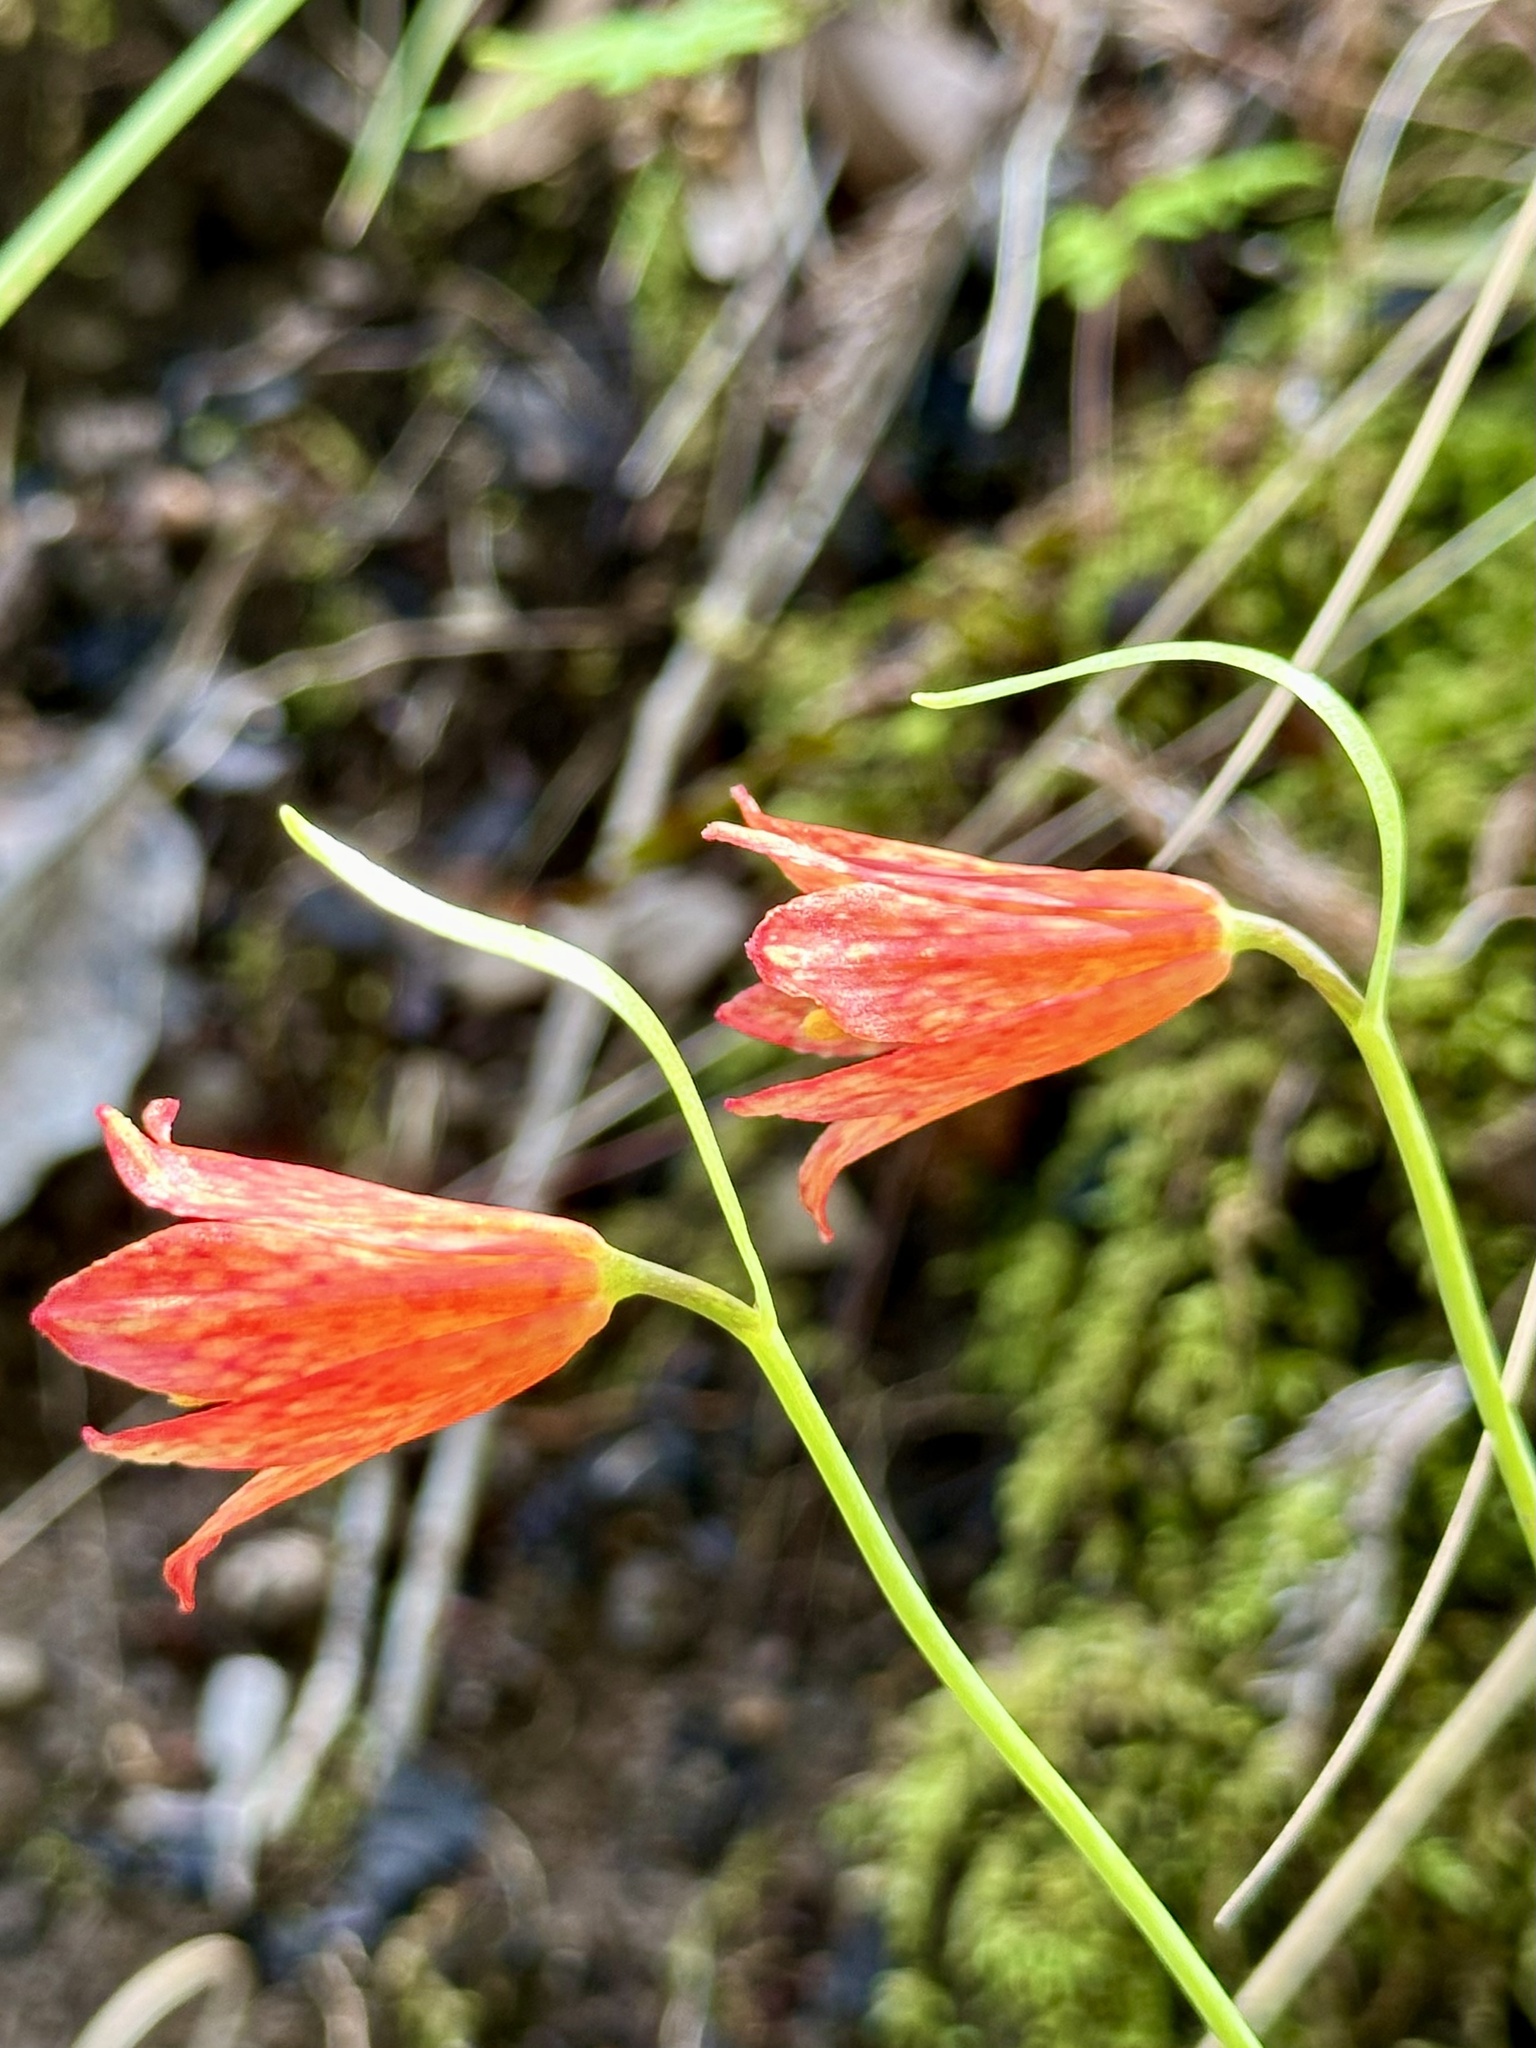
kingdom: Plantae
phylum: Tracheophyta
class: Liliopsida
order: Liliales
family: Liliaceae
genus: Fritillaria
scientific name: Fritillaria recurva
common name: Scarlet fritillary
